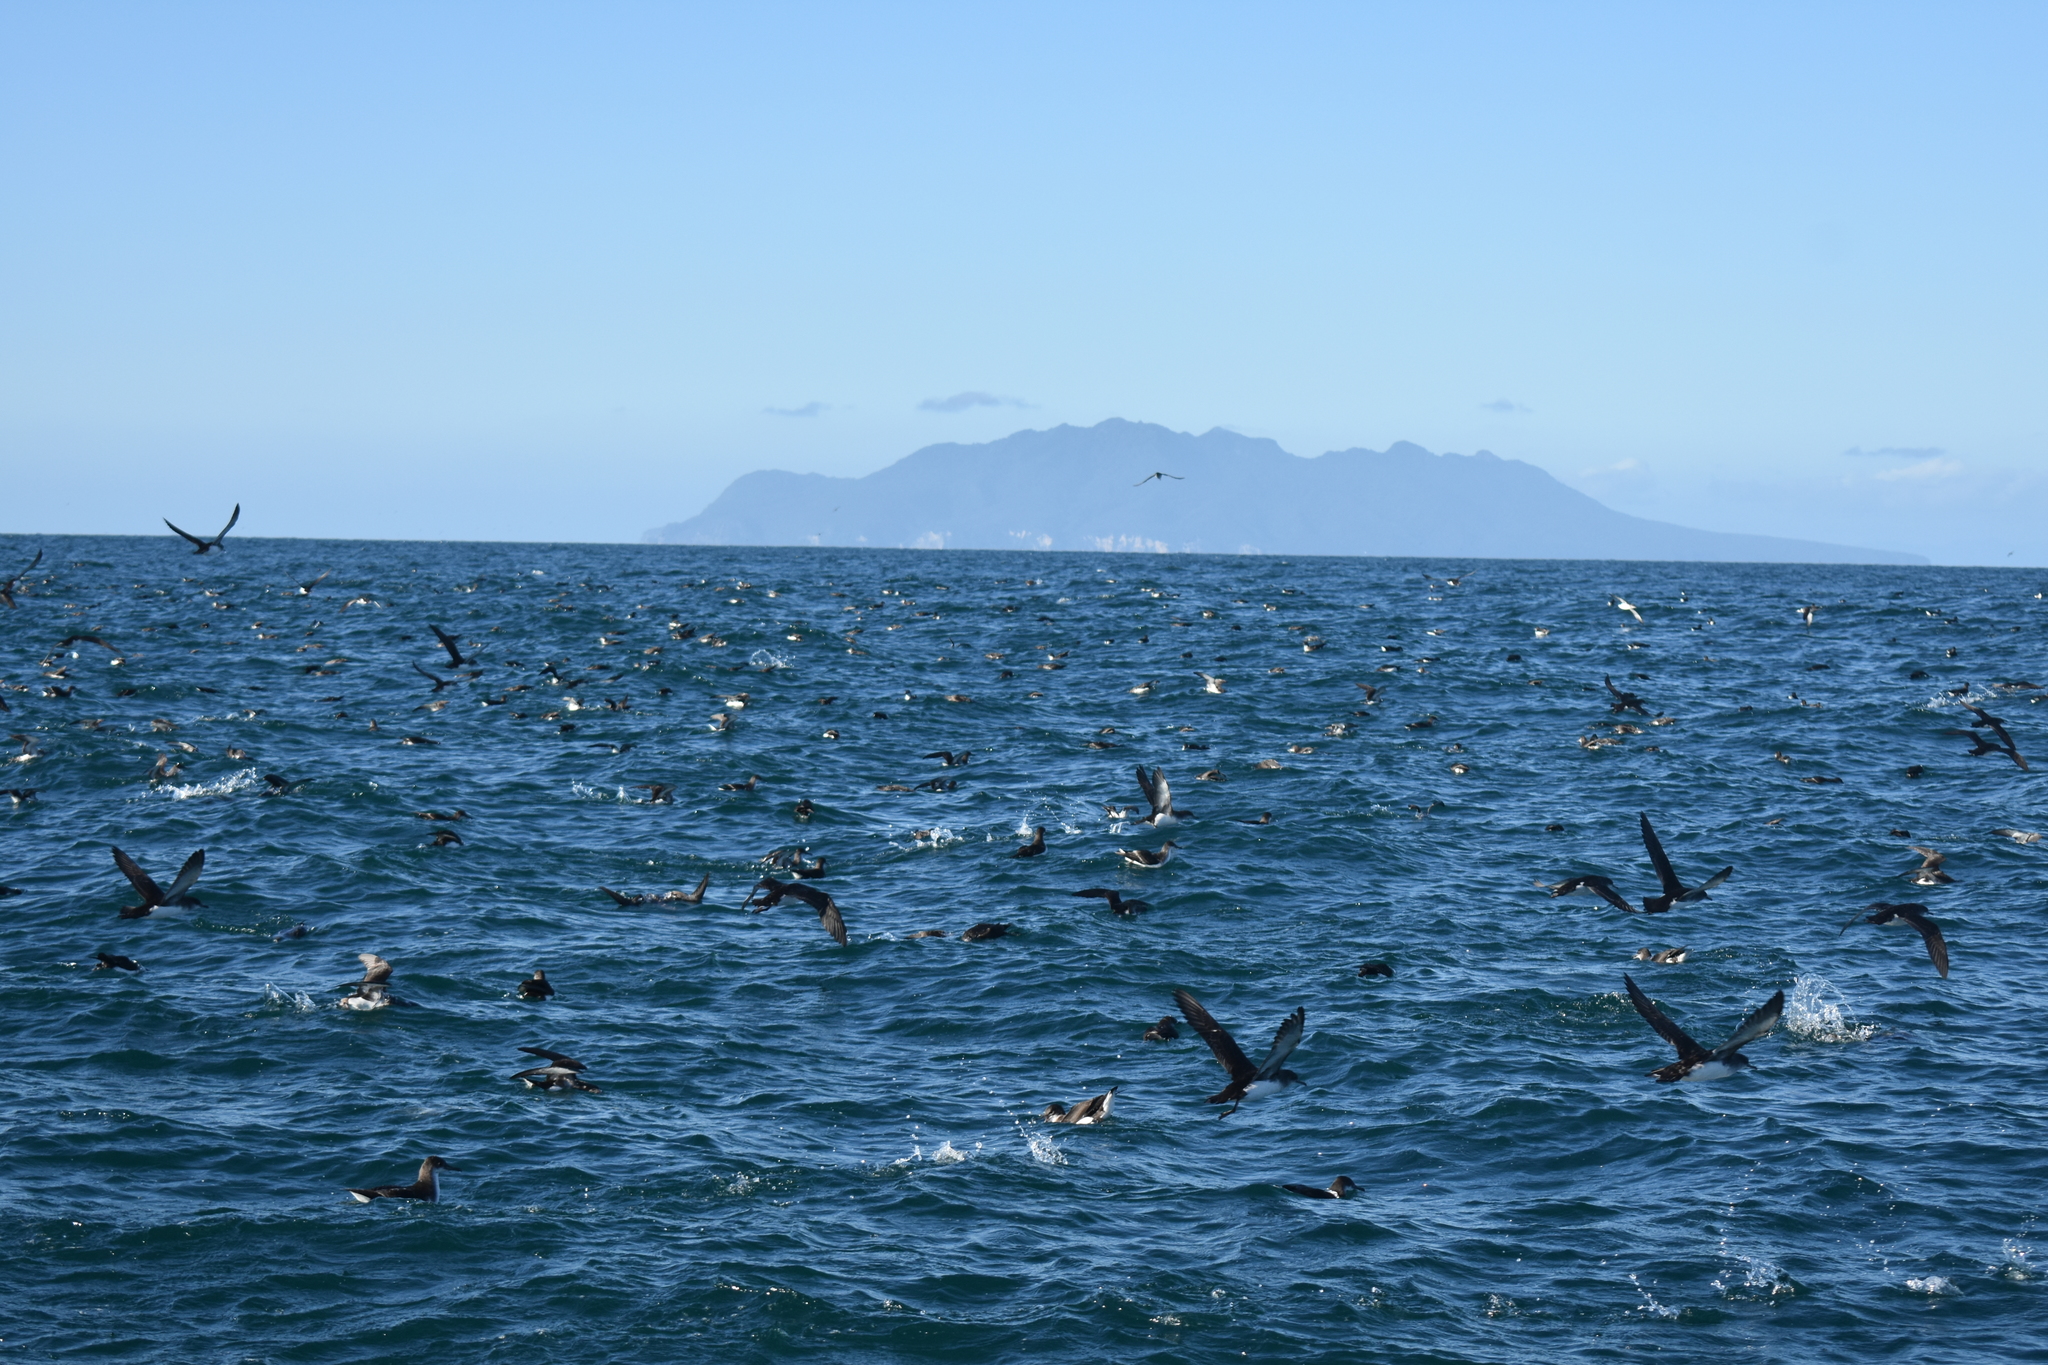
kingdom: Animalia
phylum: Chordata
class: Aves
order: Procellariiformes
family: Procellariidae
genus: Puffinus
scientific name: Puffinus gavia
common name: Fluttering shearwater
